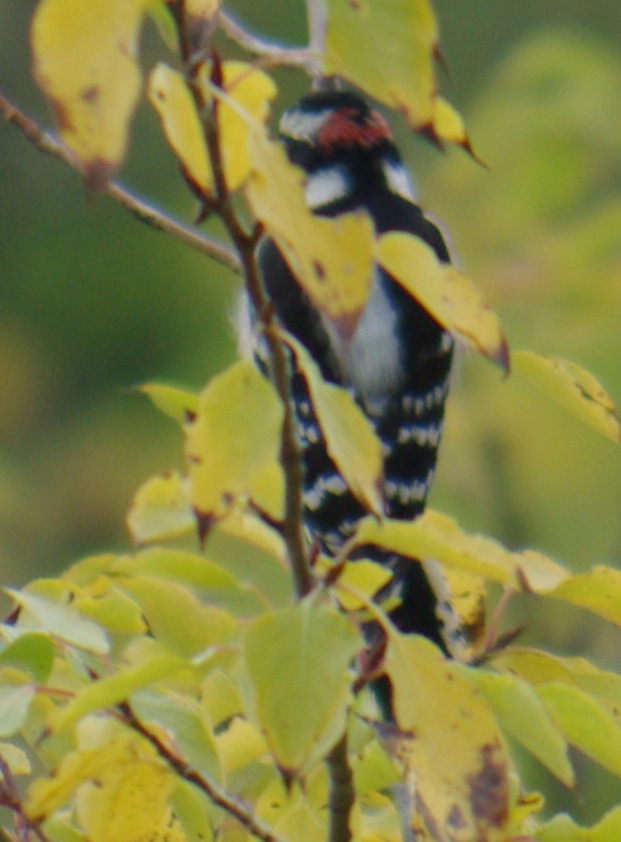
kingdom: Animalia
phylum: Chordata
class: Aves
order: Piciformes
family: Picidae
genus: Dryobates
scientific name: Dryobates pubescens
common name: Downy woodpecker
